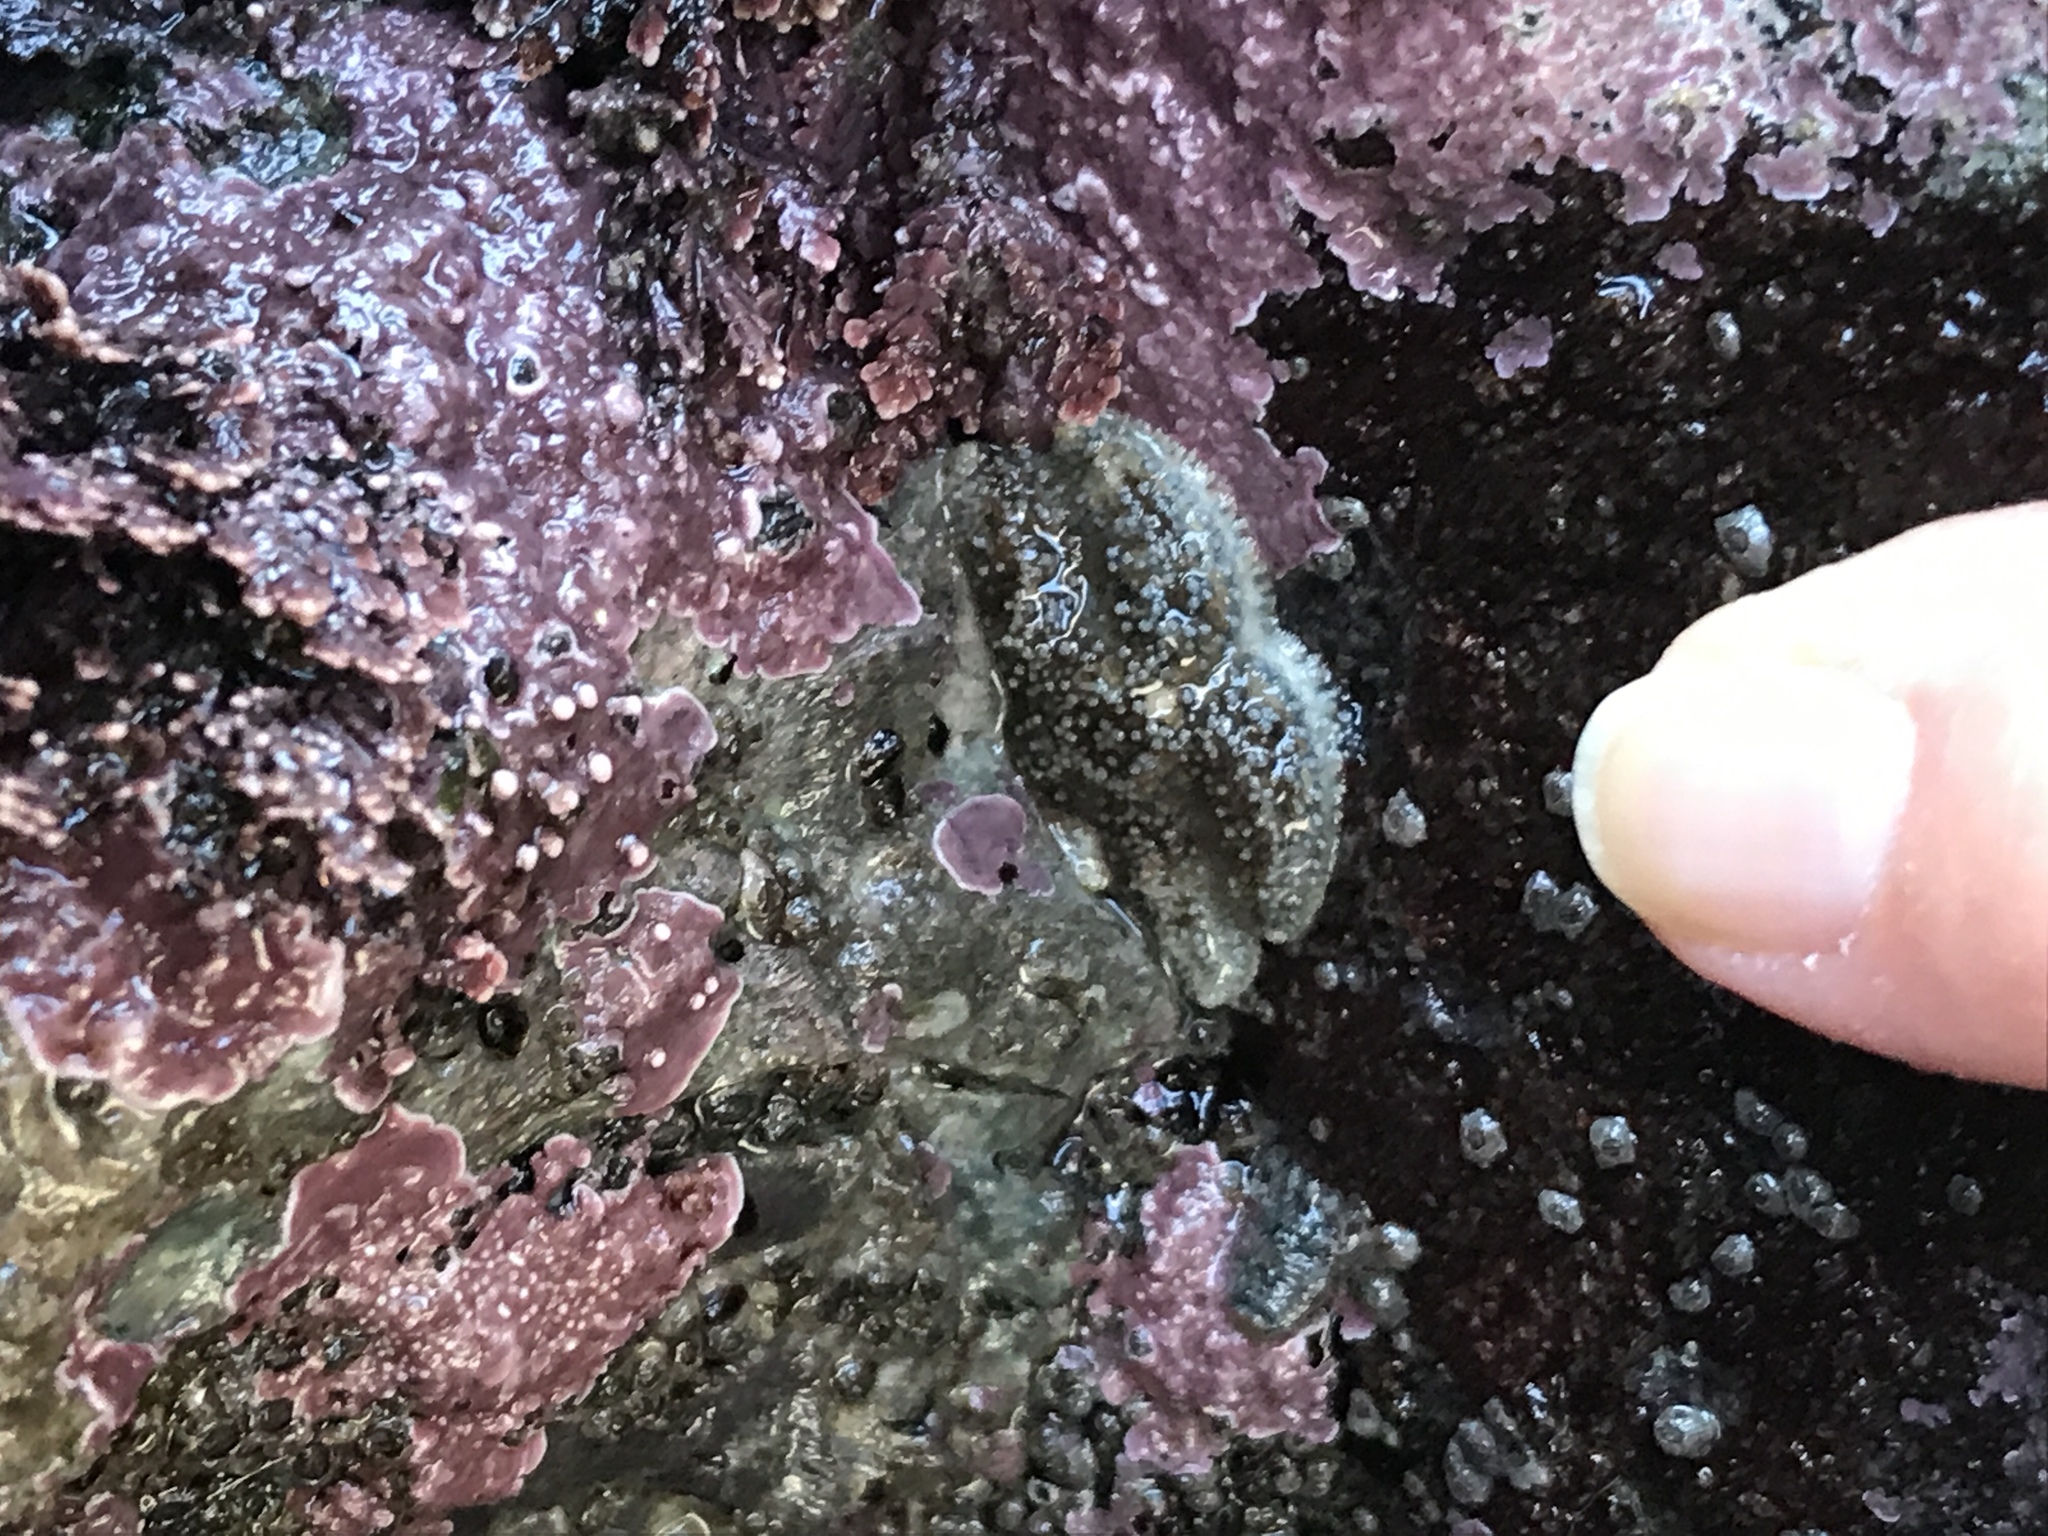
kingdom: Animalia
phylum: Echinodermata
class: Asteroidea
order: Forcipulatida
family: Asteriidae
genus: Leptasterias
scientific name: Leptasterias hexactis
